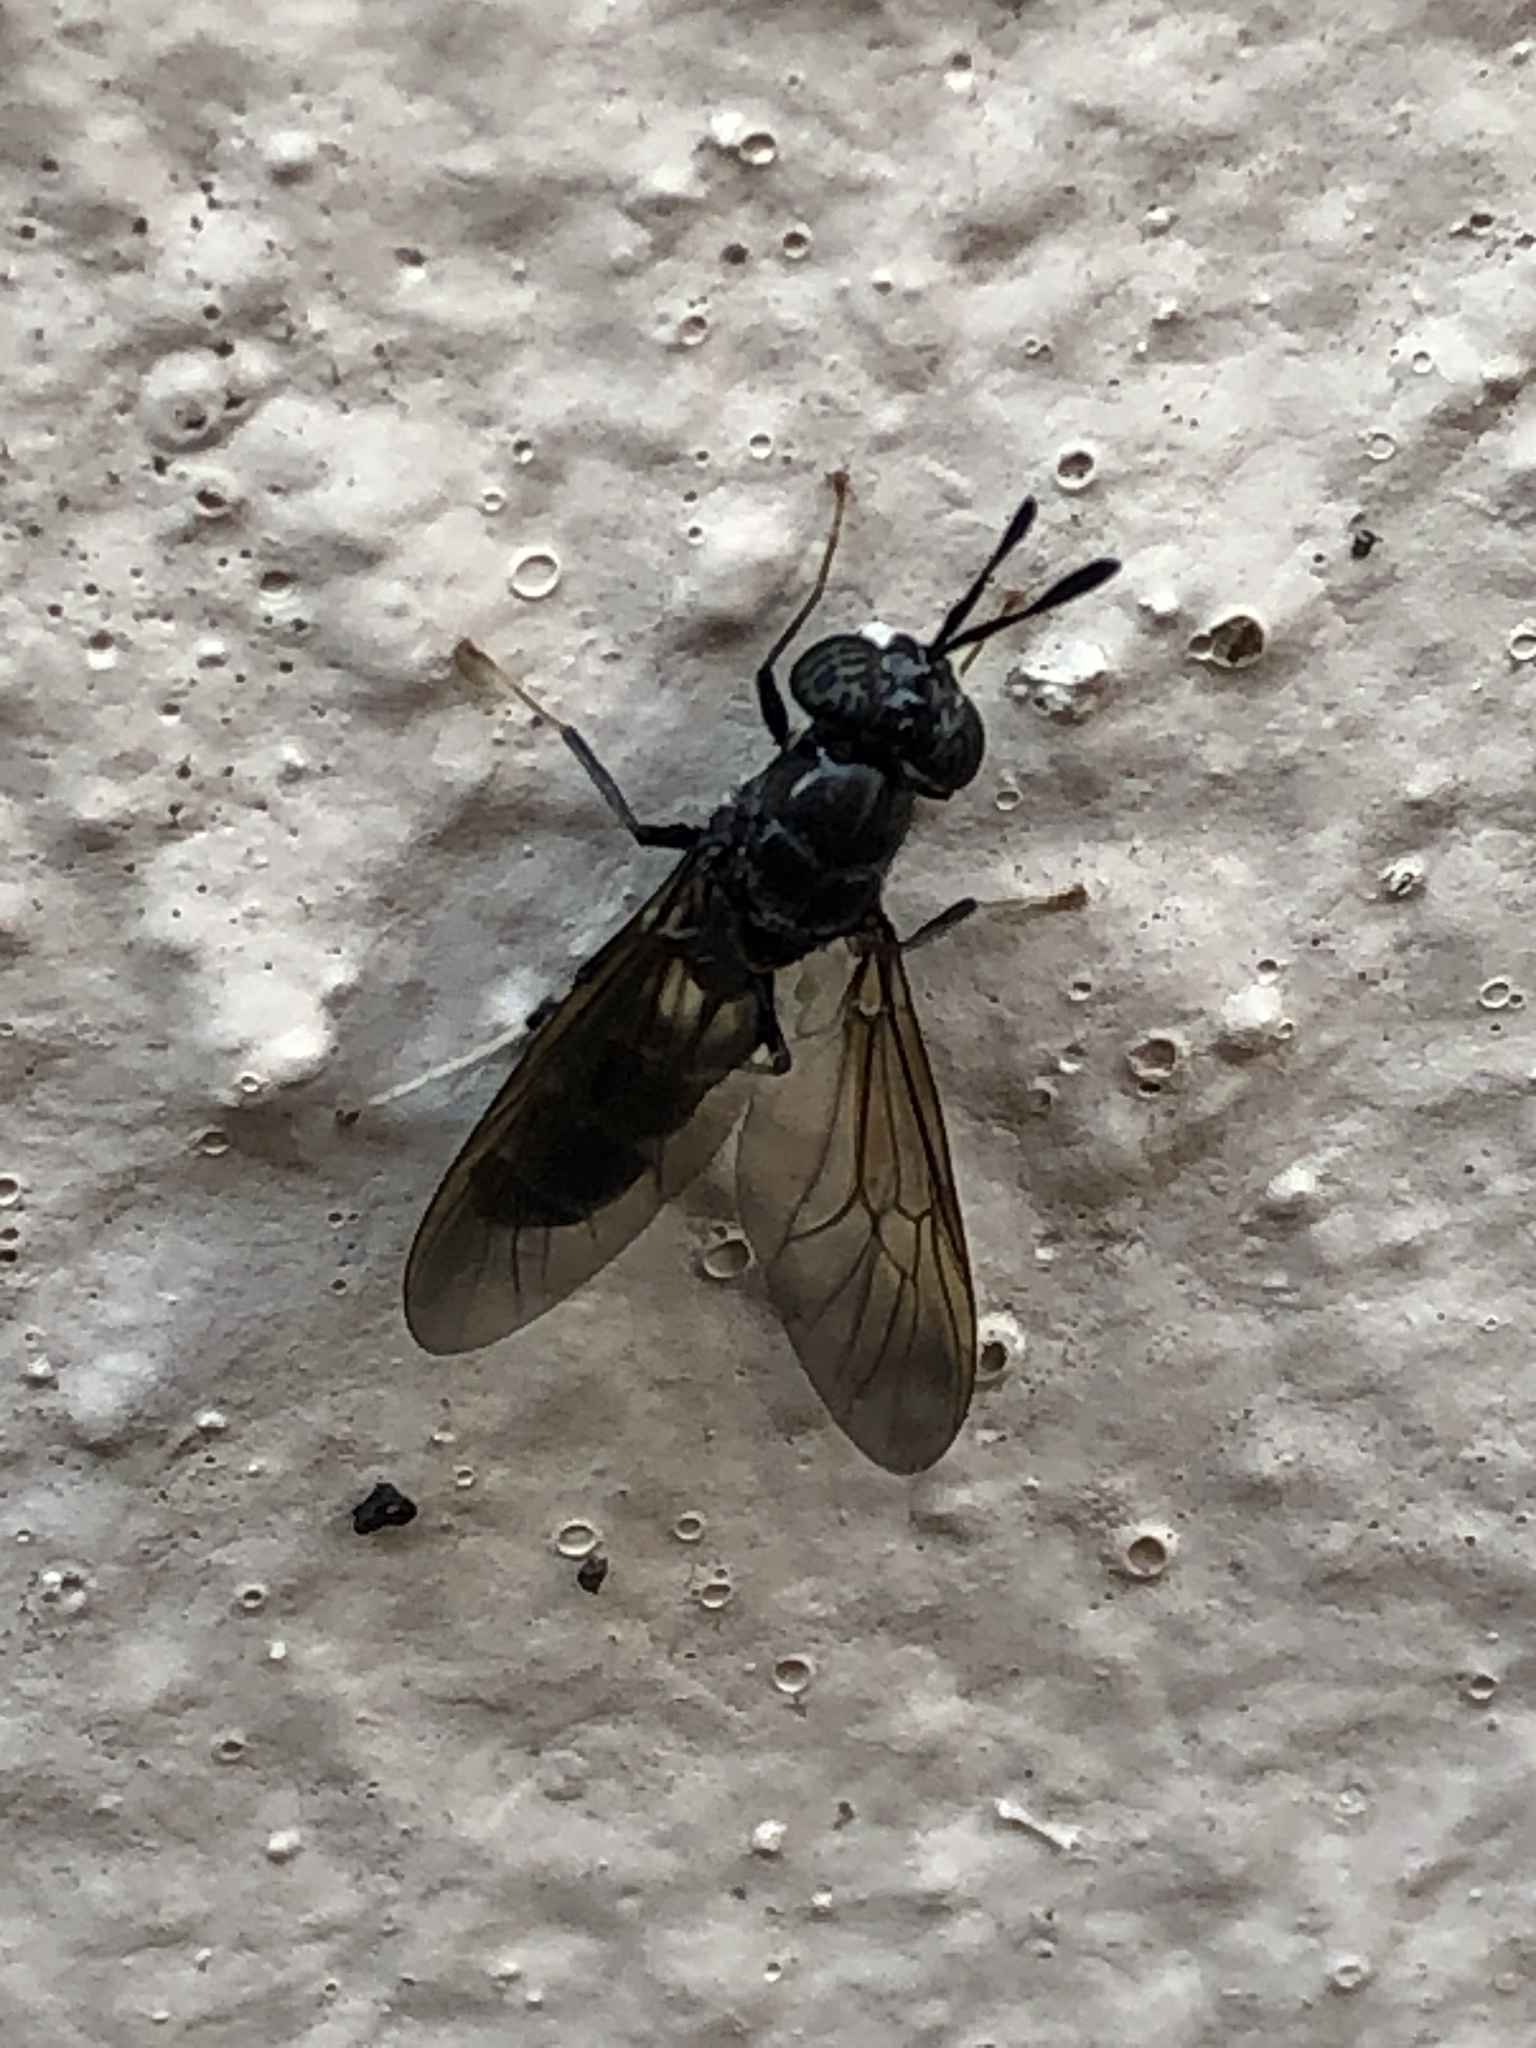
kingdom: Animalia
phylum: Arthropoda
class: Insecta
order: Diptera
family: Stratiomyidae
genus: Hermetia
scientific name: Hermetia illucens
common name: Black soldier fly
